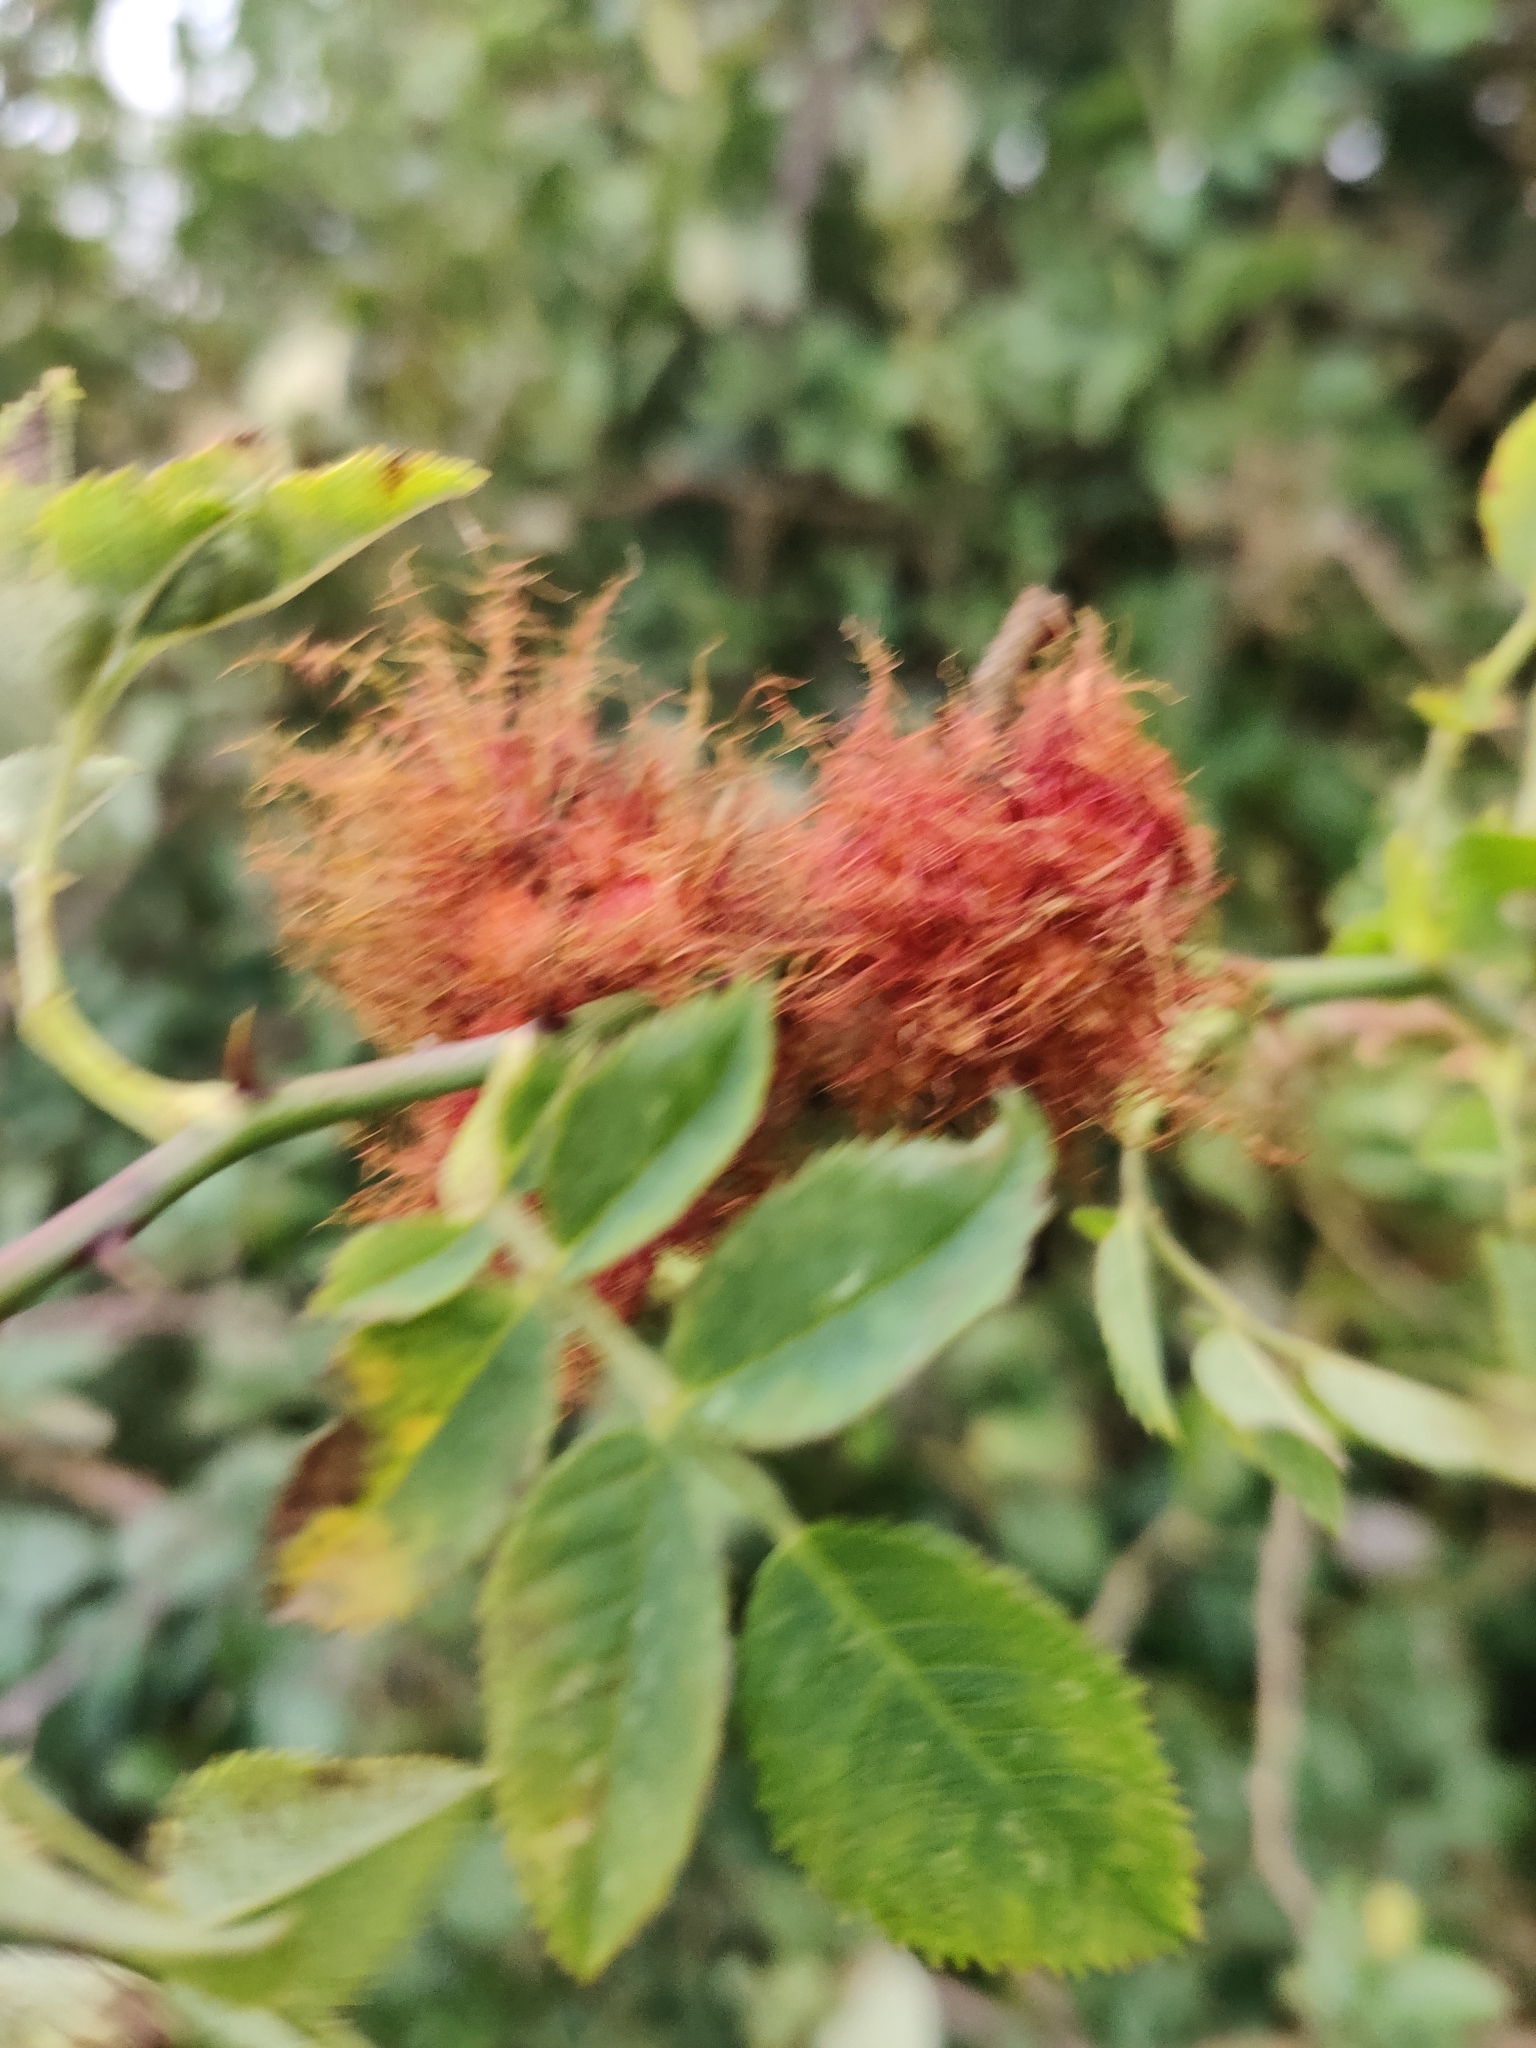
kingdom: Animalia
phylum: Arthropoda
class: Insecta
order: Hymenoptera
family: Cynipidae
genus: Diplolepis
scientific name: Diplolepis rosae
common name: Bedeguar gall
